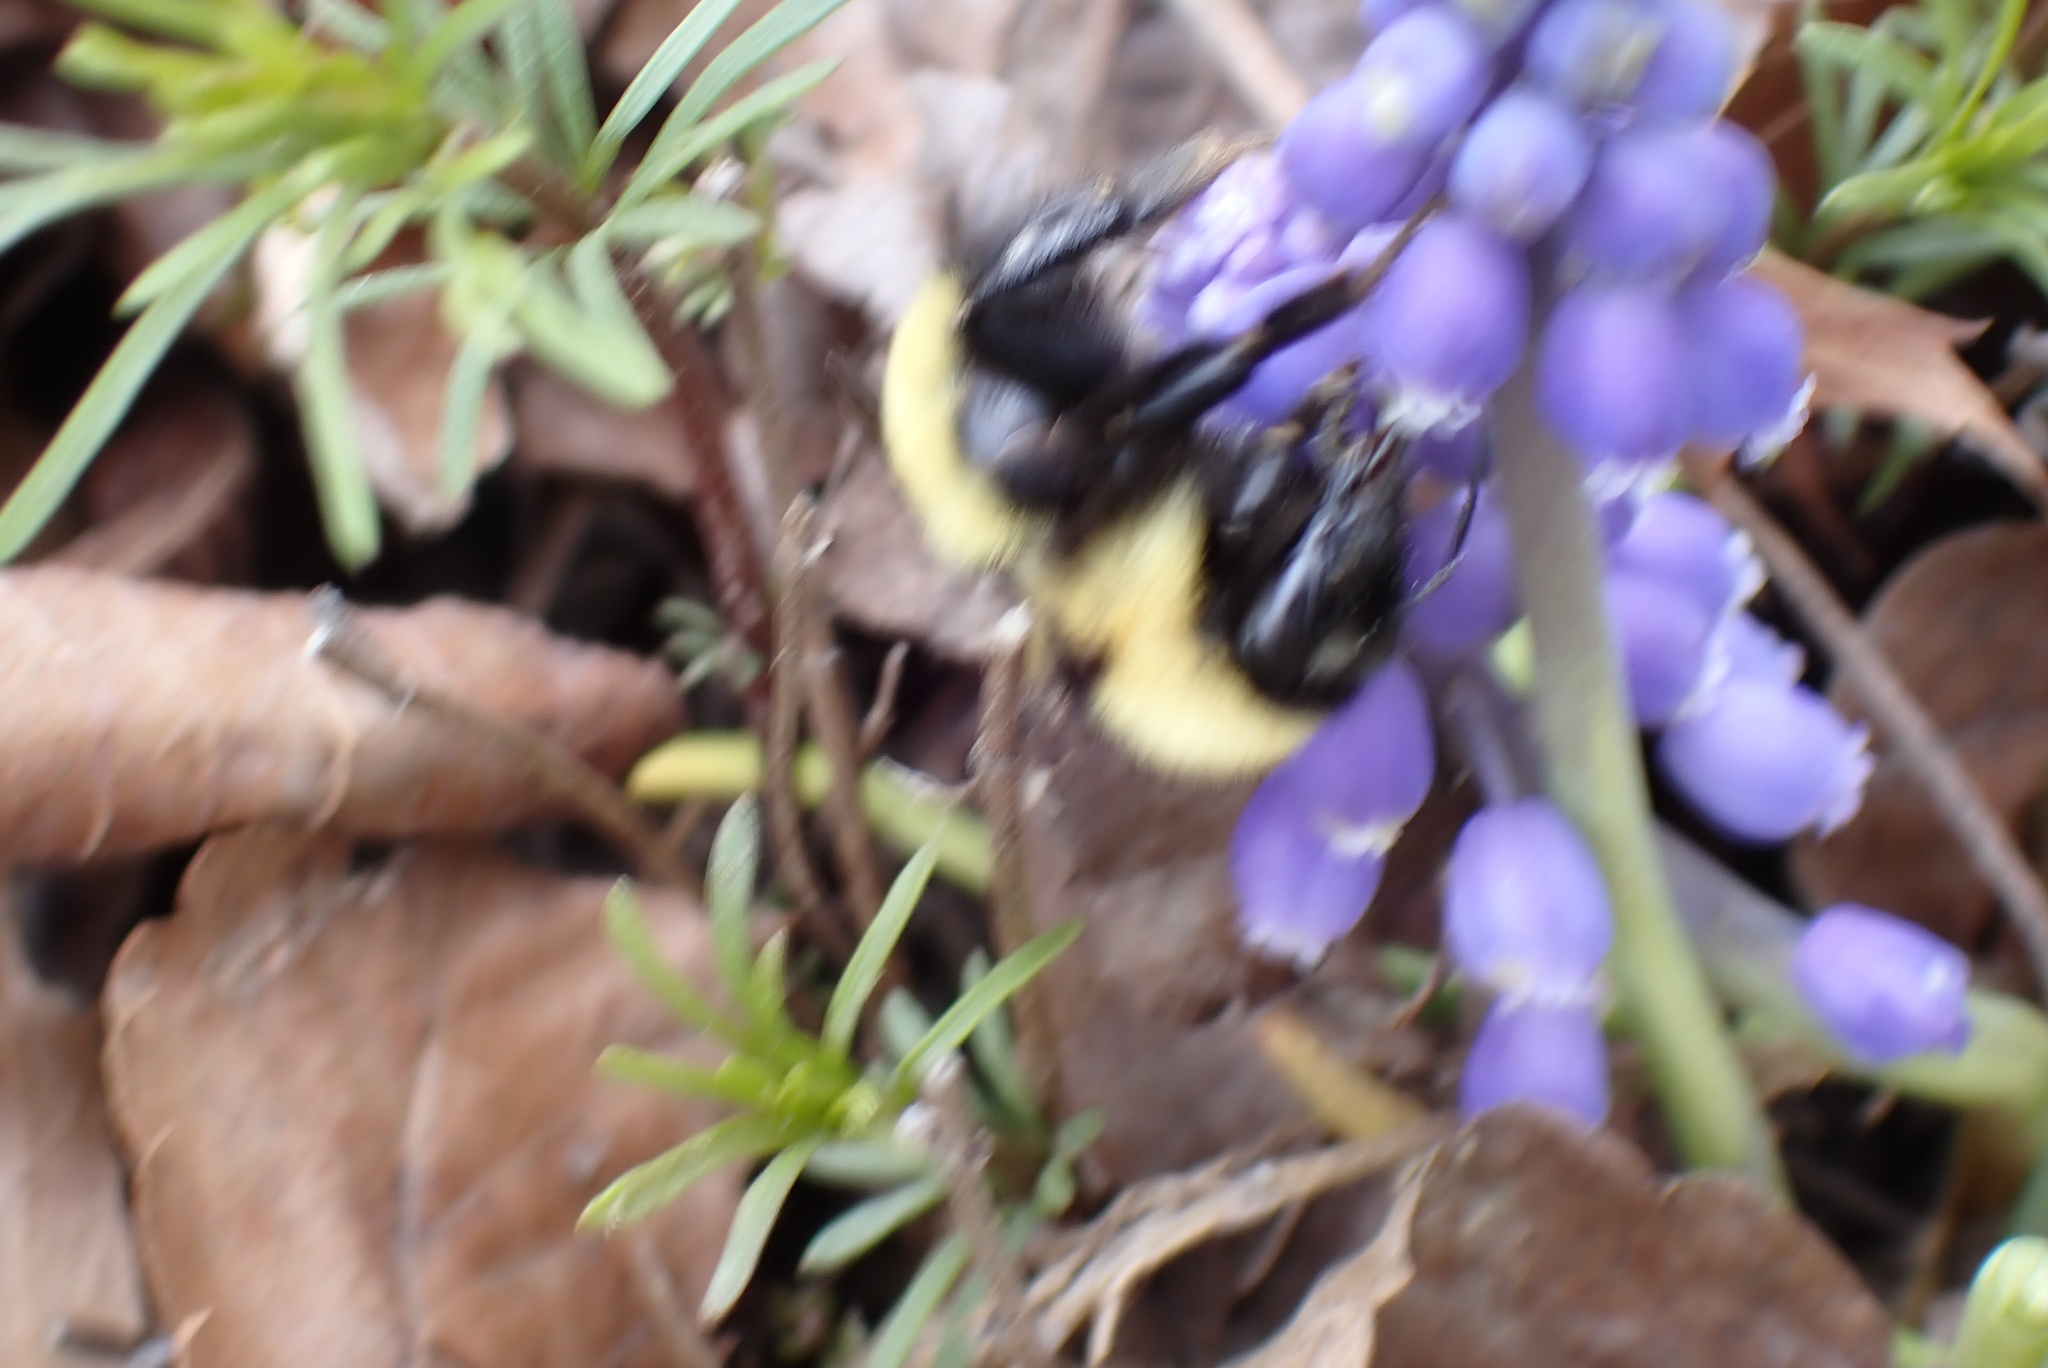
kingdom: Animalia
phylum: Arthropoda
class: Insecta
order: Hymenoptera
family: Apidae
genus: Bombus
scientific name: Bombus fervidus
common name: Yellow bumble bee
